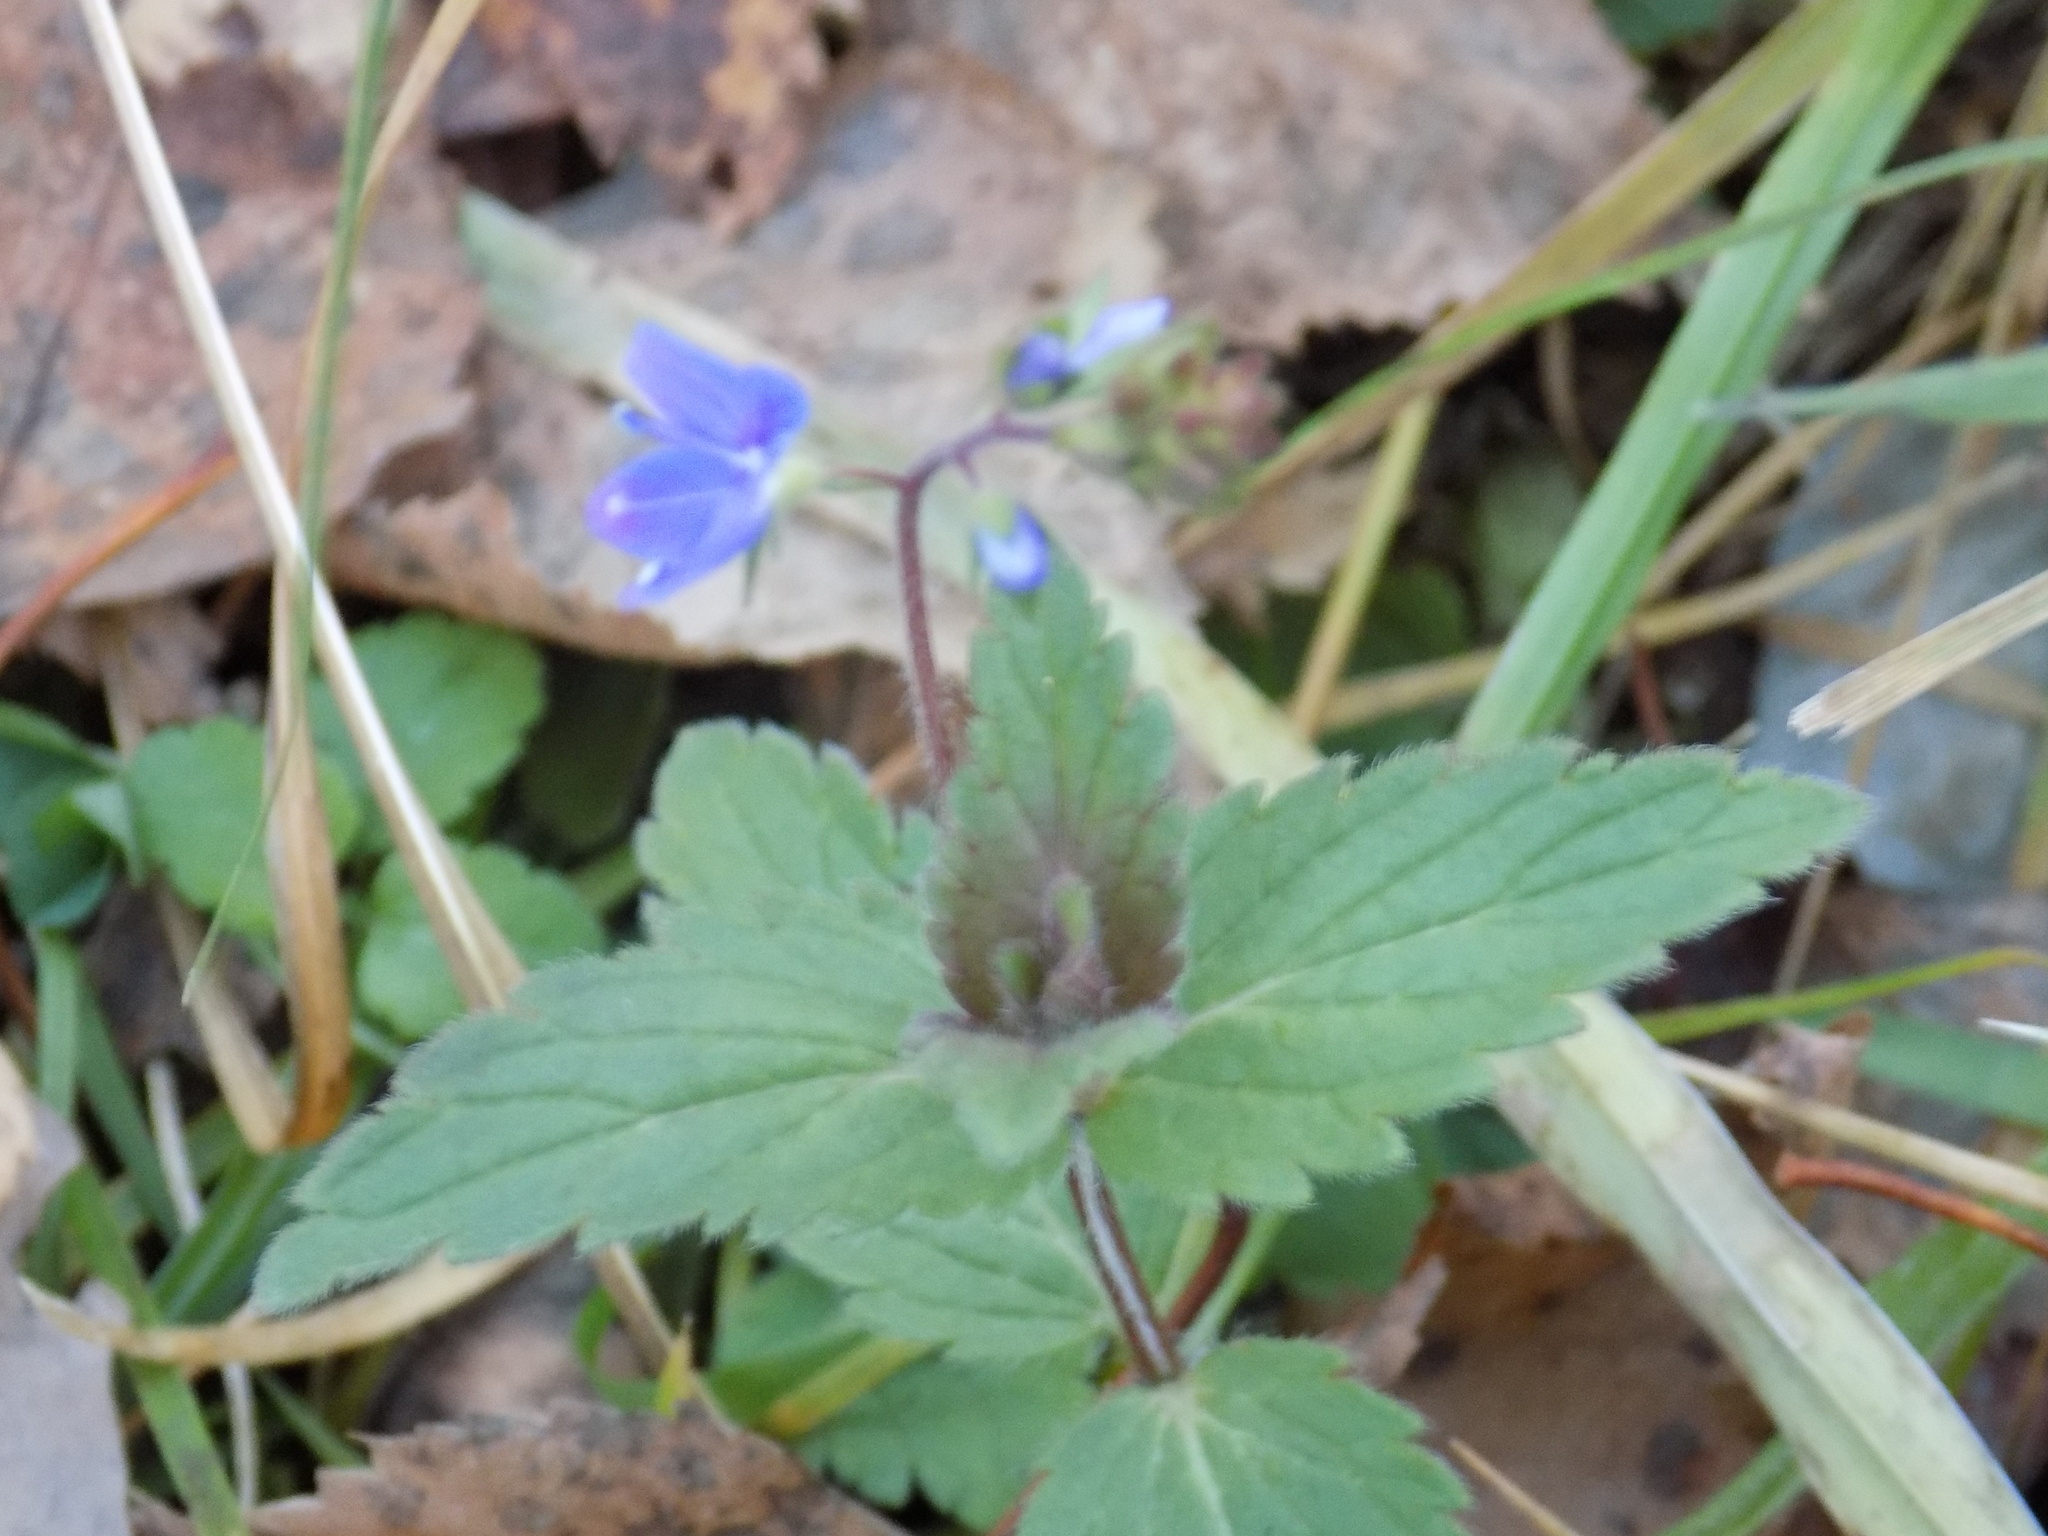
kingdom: Plantae
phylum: Tracheophyta
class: Magnoliopsida
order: Lamiales
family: Plantaginaceae
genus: Veronica
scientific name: Veronica chamaedrys
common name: Germander speedwell
